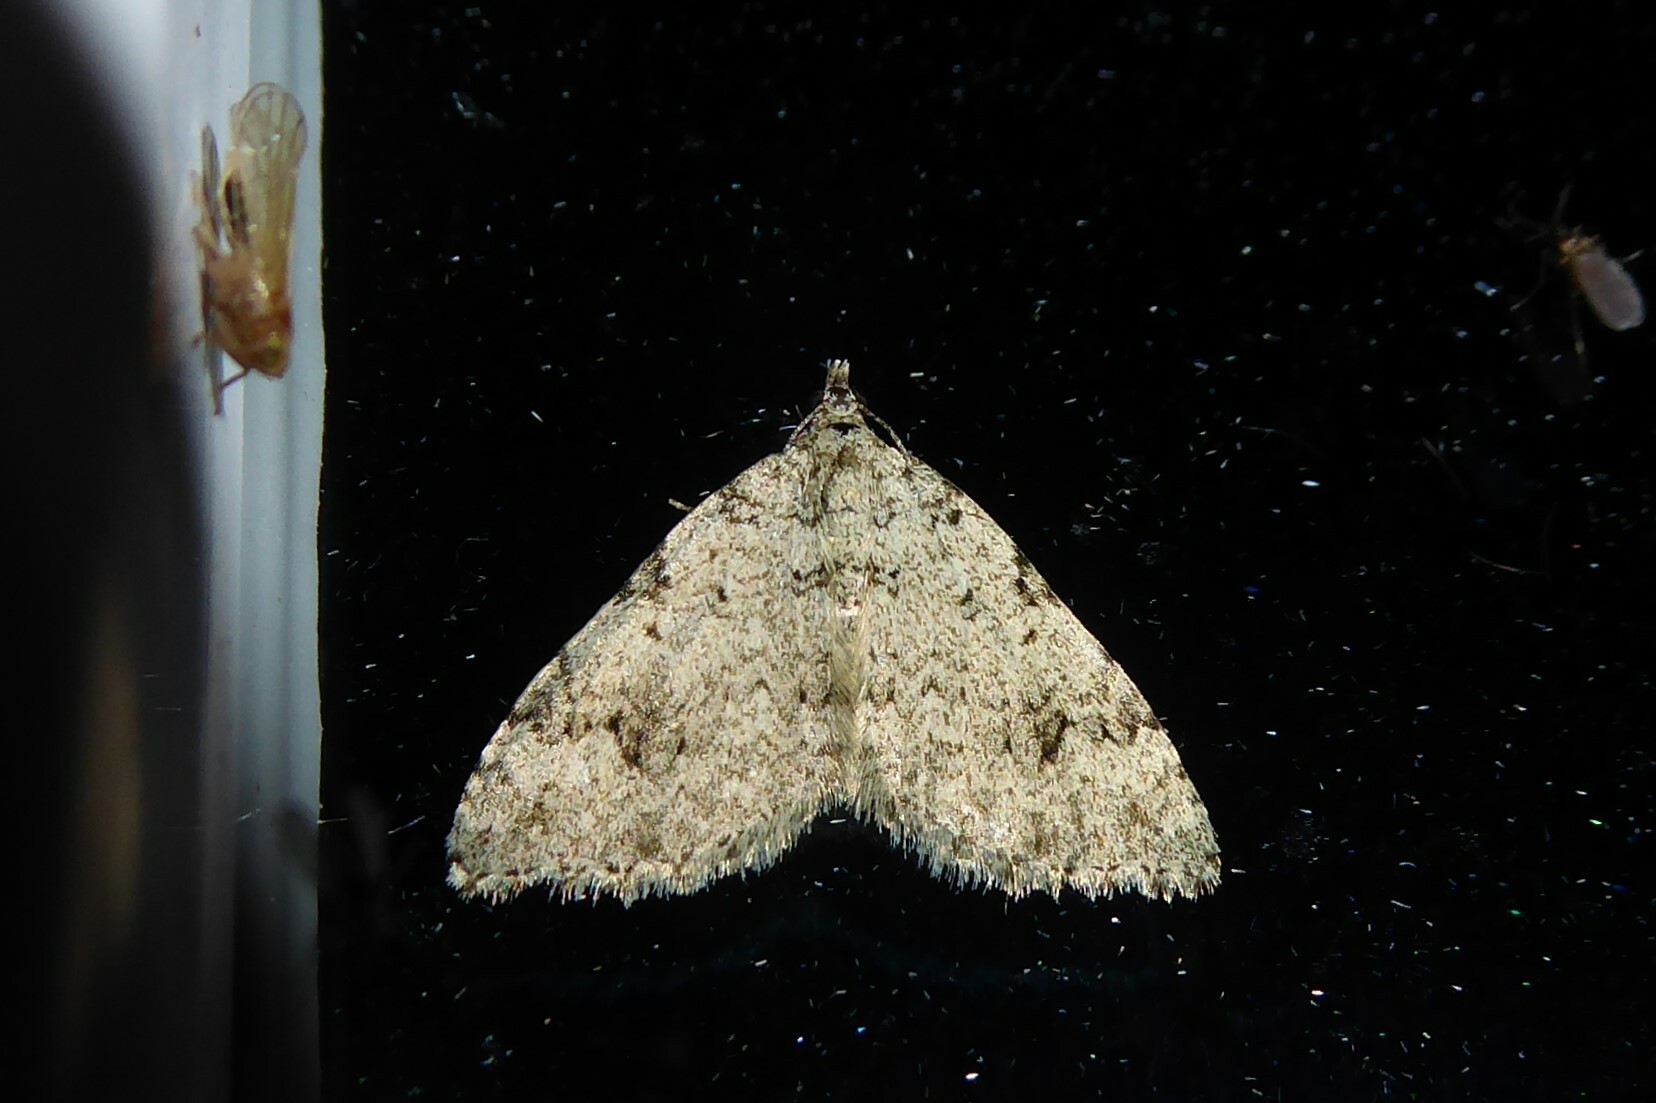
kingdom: Animalia
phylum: Arthropoda
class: Insecta
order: Lepidoptera
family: Geometridae
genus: Helastia
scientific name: Helastia cinerearia
